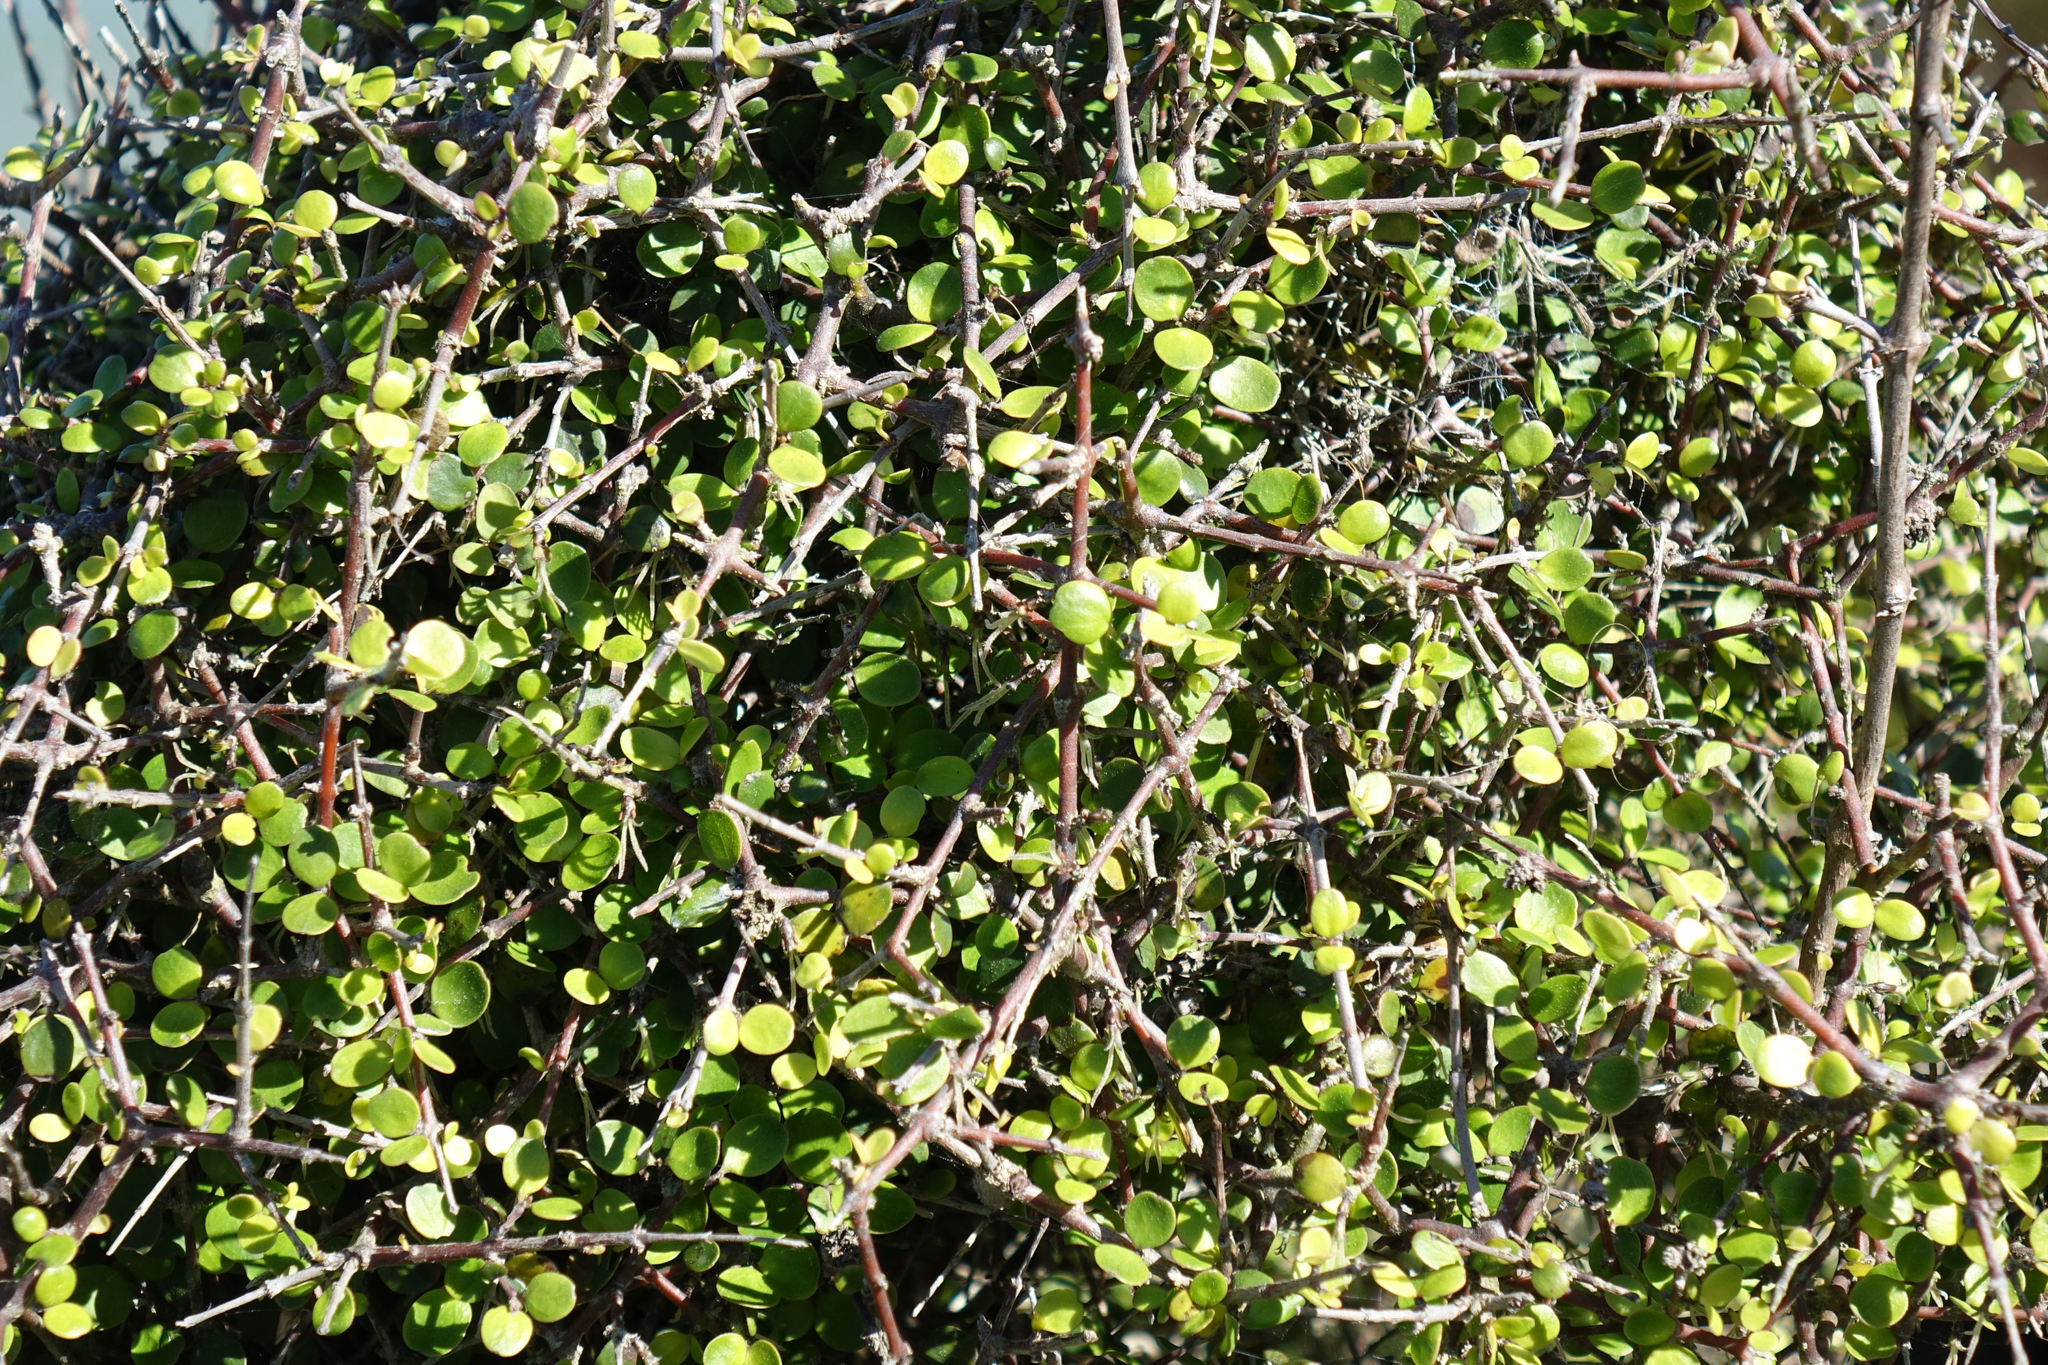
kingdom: Plantae
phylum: Tracheophyta
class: Magnoliopsida
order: Gentianales
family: Rubiaceae
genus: Coprosma
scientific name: Coprosma crassifolia
